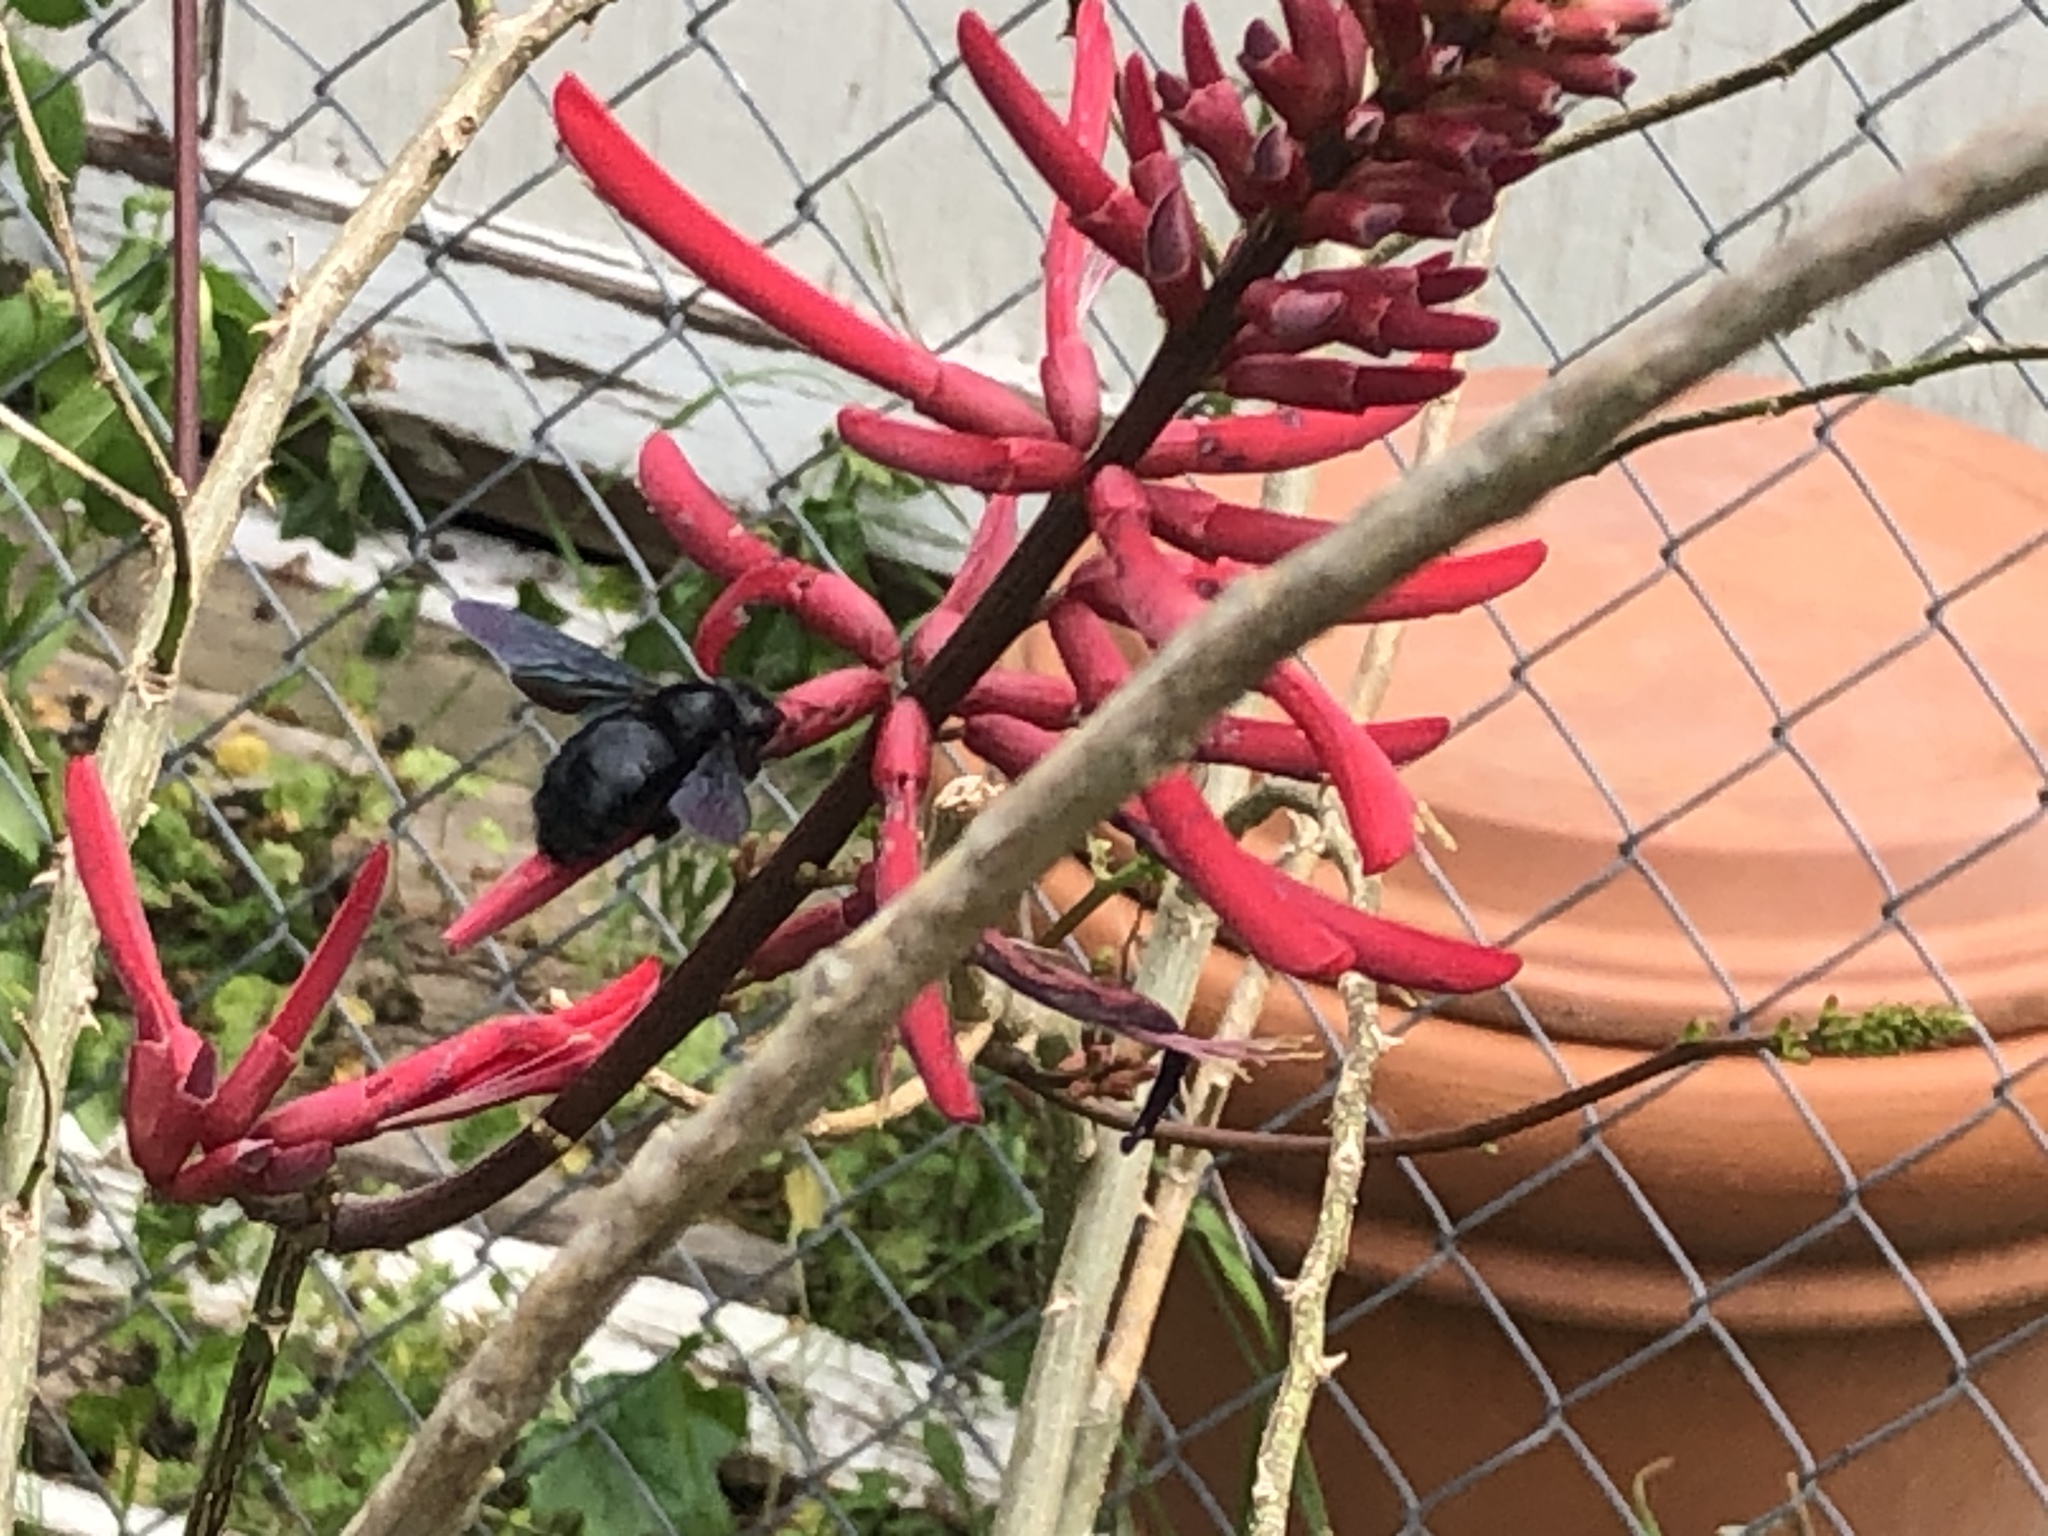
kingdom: Animalia
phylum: Arthropoda
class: Insecta
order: Hymenoptera
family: Apidae
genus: Xylocopa
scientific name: Xylocopa strandi
